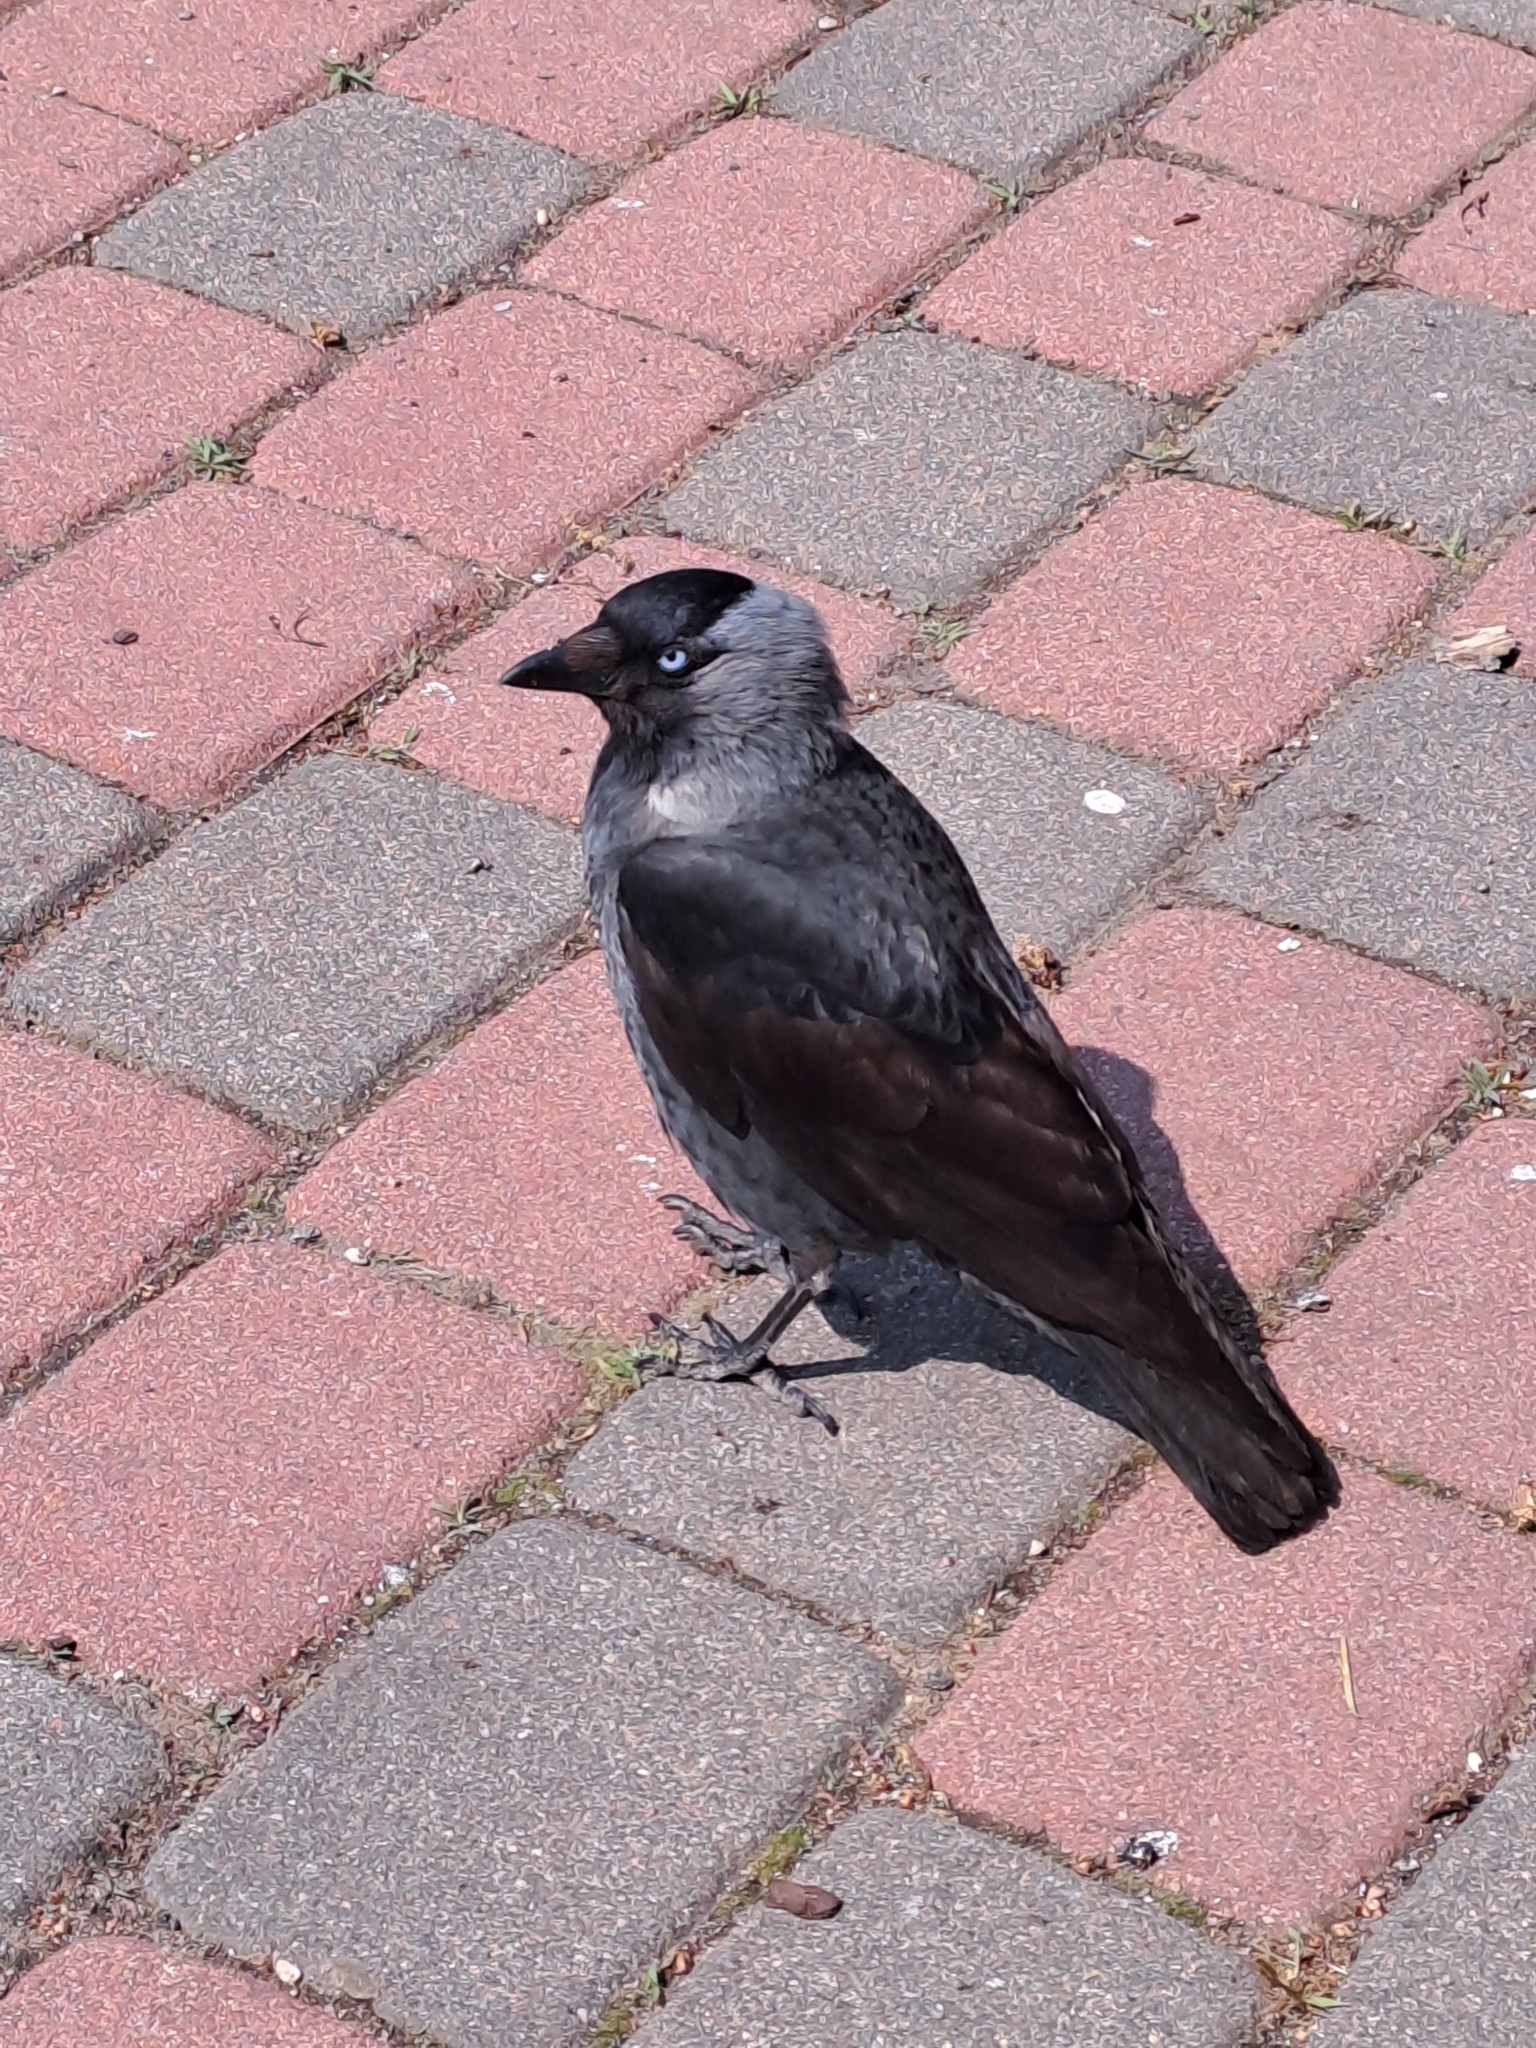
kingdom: Animalia
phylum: Chordata
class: Aves
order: Passeriformes
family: Corvidae
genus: Coloeus
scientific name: Coloeus monedula
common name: Western jackdaw
